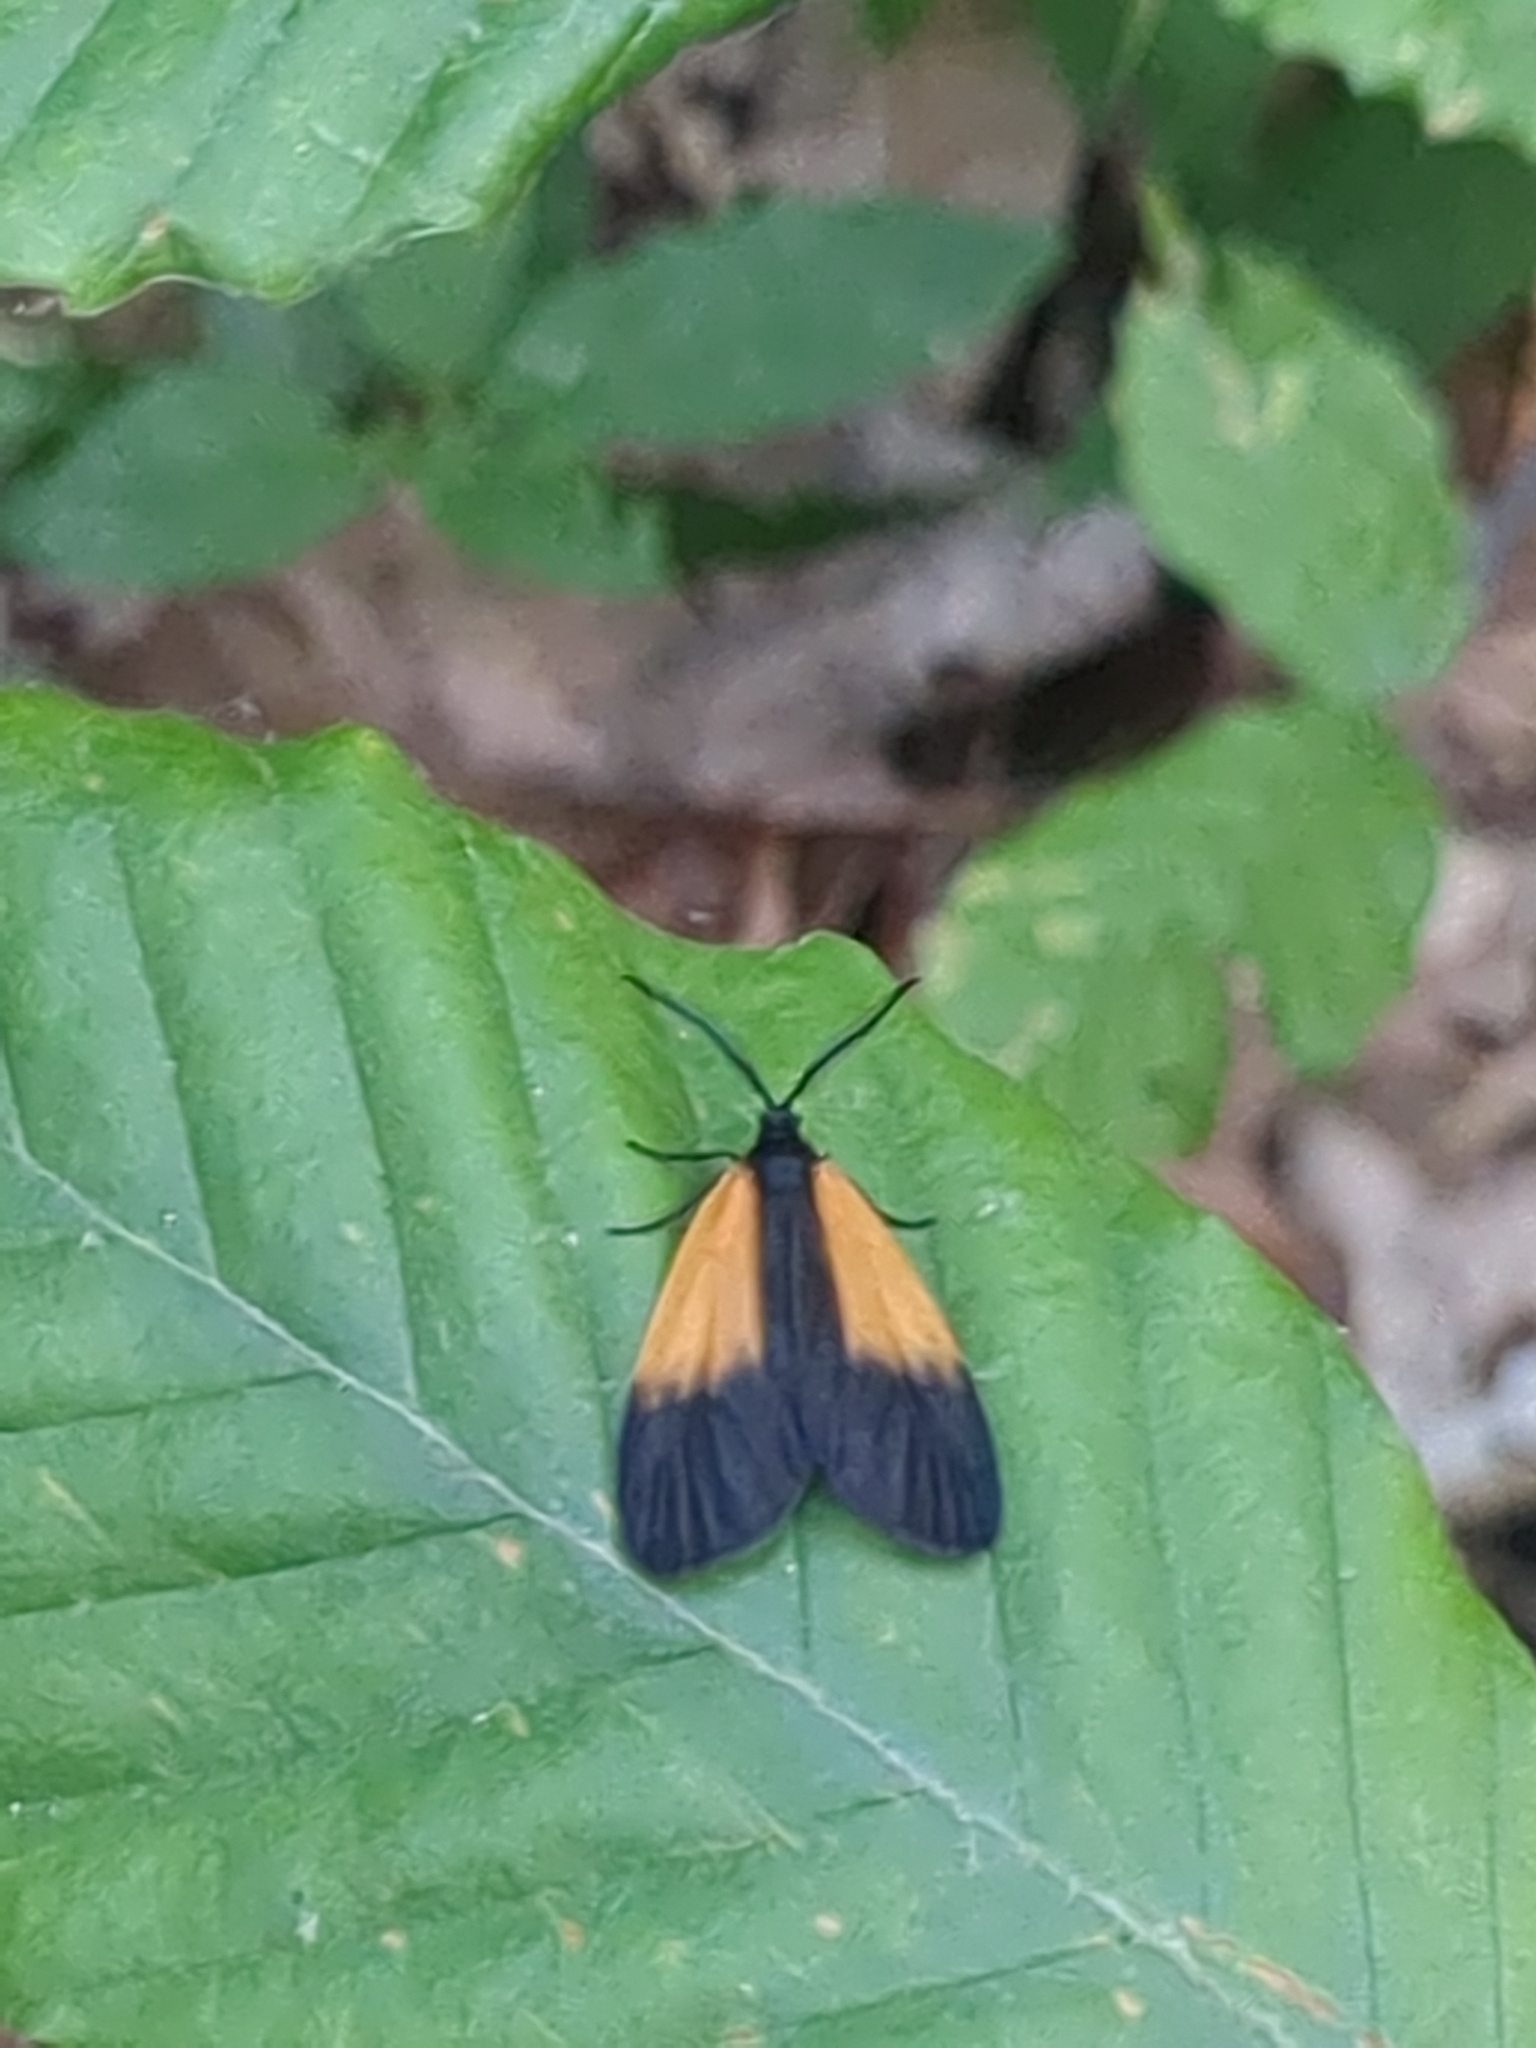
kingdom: Animalia
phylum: Arthropoda
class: Insecta
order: Lepidoptera
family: Zygaenidae
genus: Malthaca
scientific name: Malthaca dimidiata
